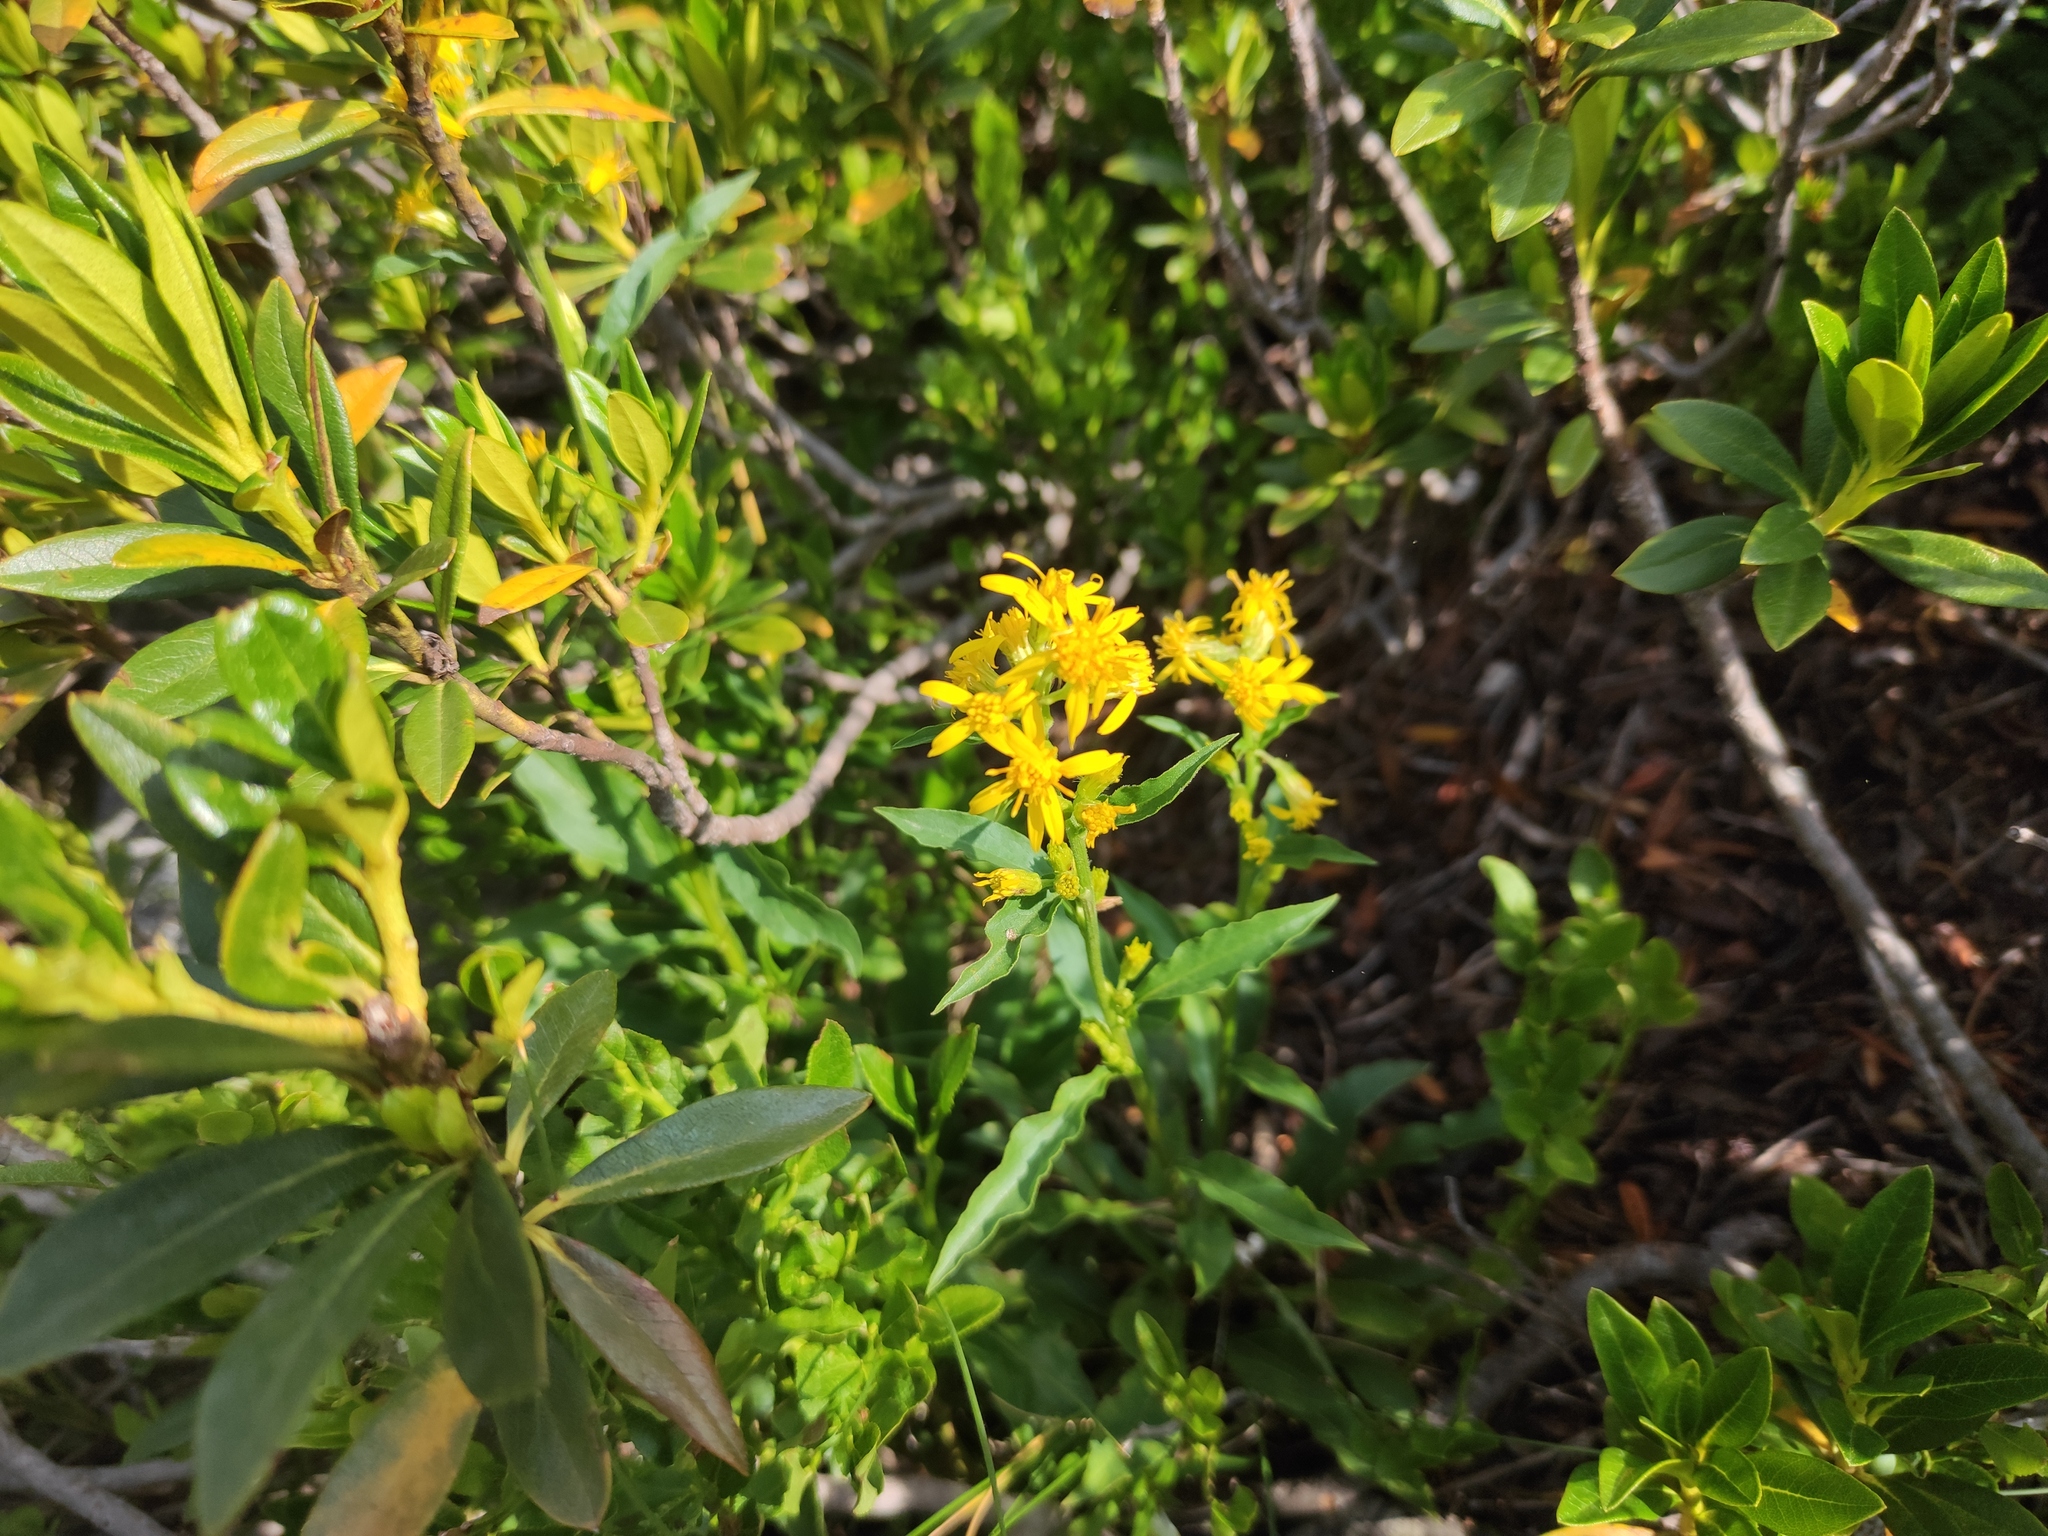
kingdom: Plantae
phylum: Tracheophyta
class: Magnoliopsida
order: Asterales
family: Asteraceae
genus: Solidago
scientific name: Solidago virgaurea
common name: Goldenrod
